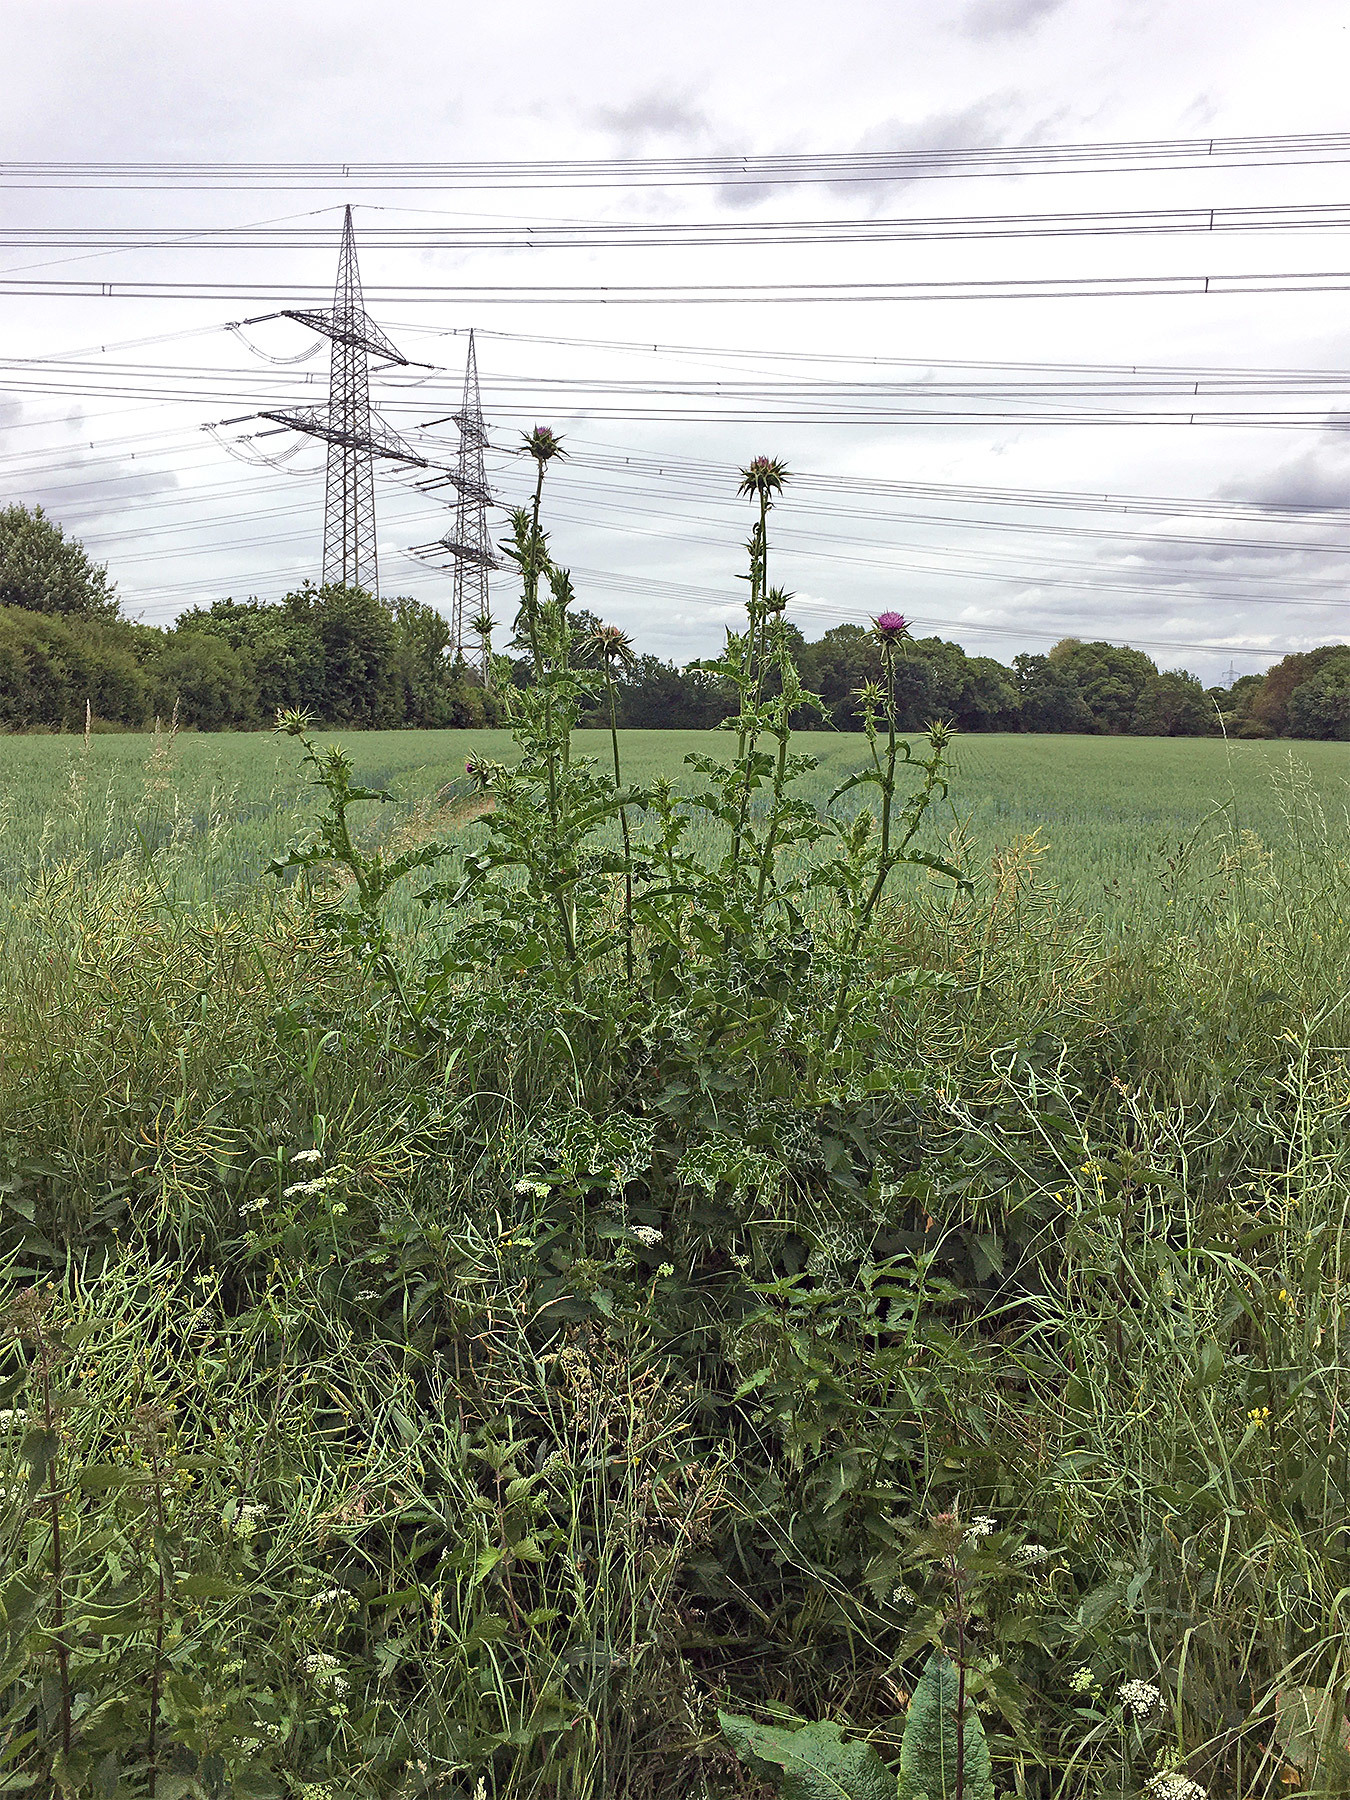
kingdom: Plantae
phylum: Tracheophyta
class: Magnoliopsida
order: Asterales
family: Asteraceae
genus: Silybum
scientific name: Silybum marianum
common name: Milk thistle
